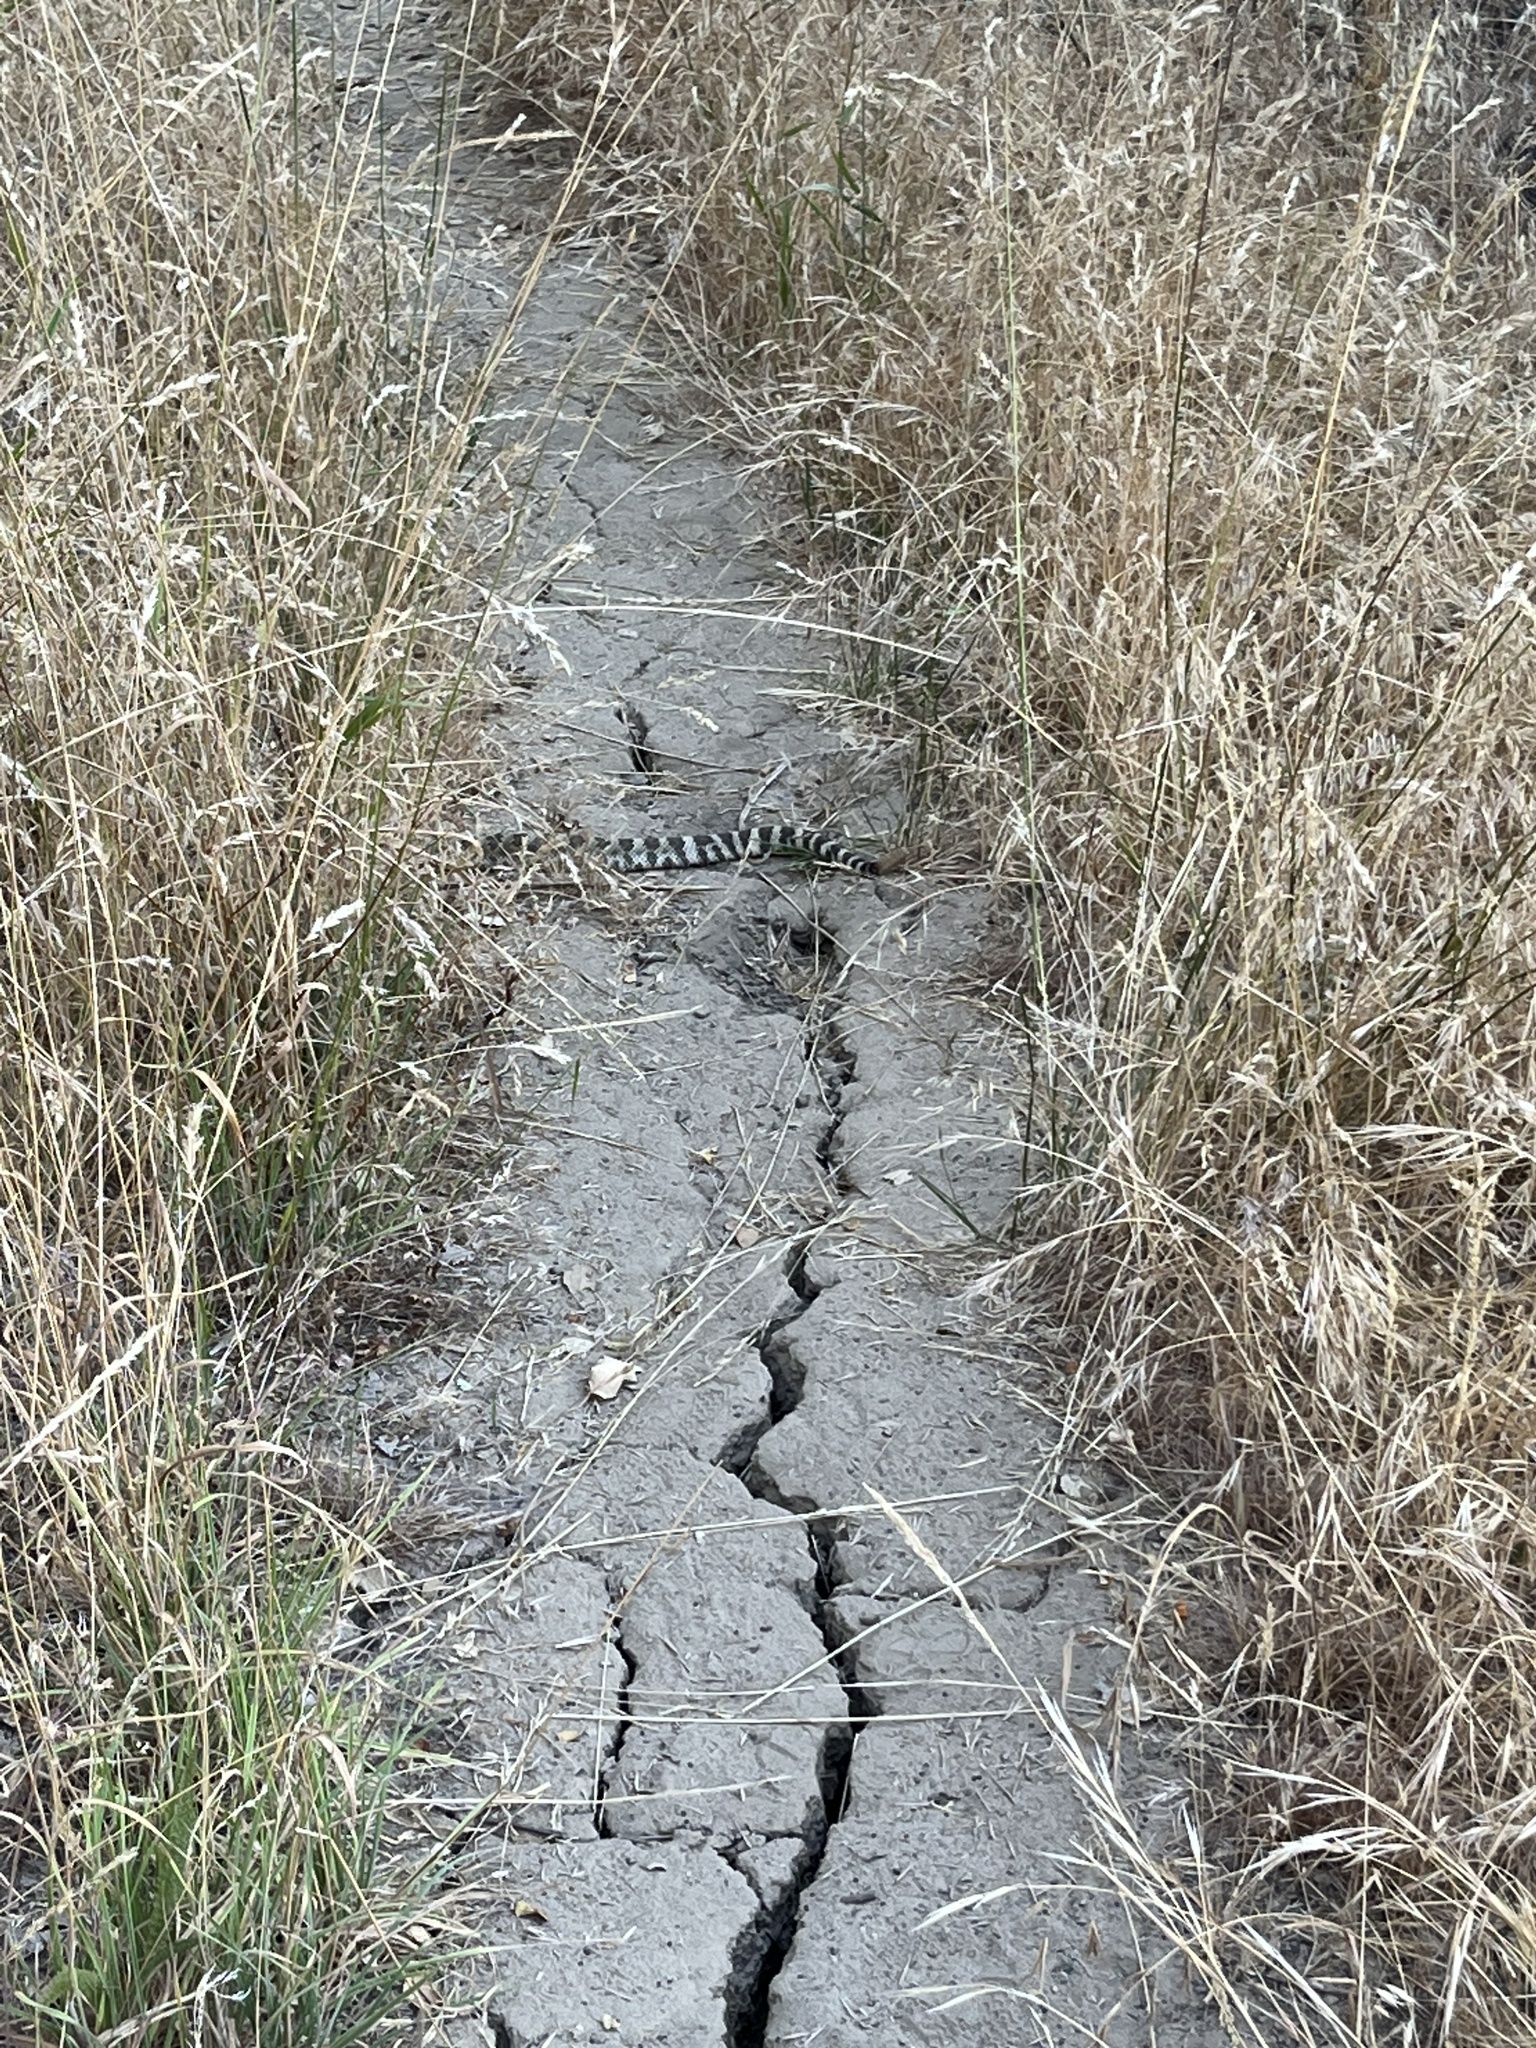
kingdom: Animalia
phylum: Chordata
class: Squamata
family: Viperidae
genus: Crotalus
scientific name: Crotalus oreganus
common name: Abyssus
